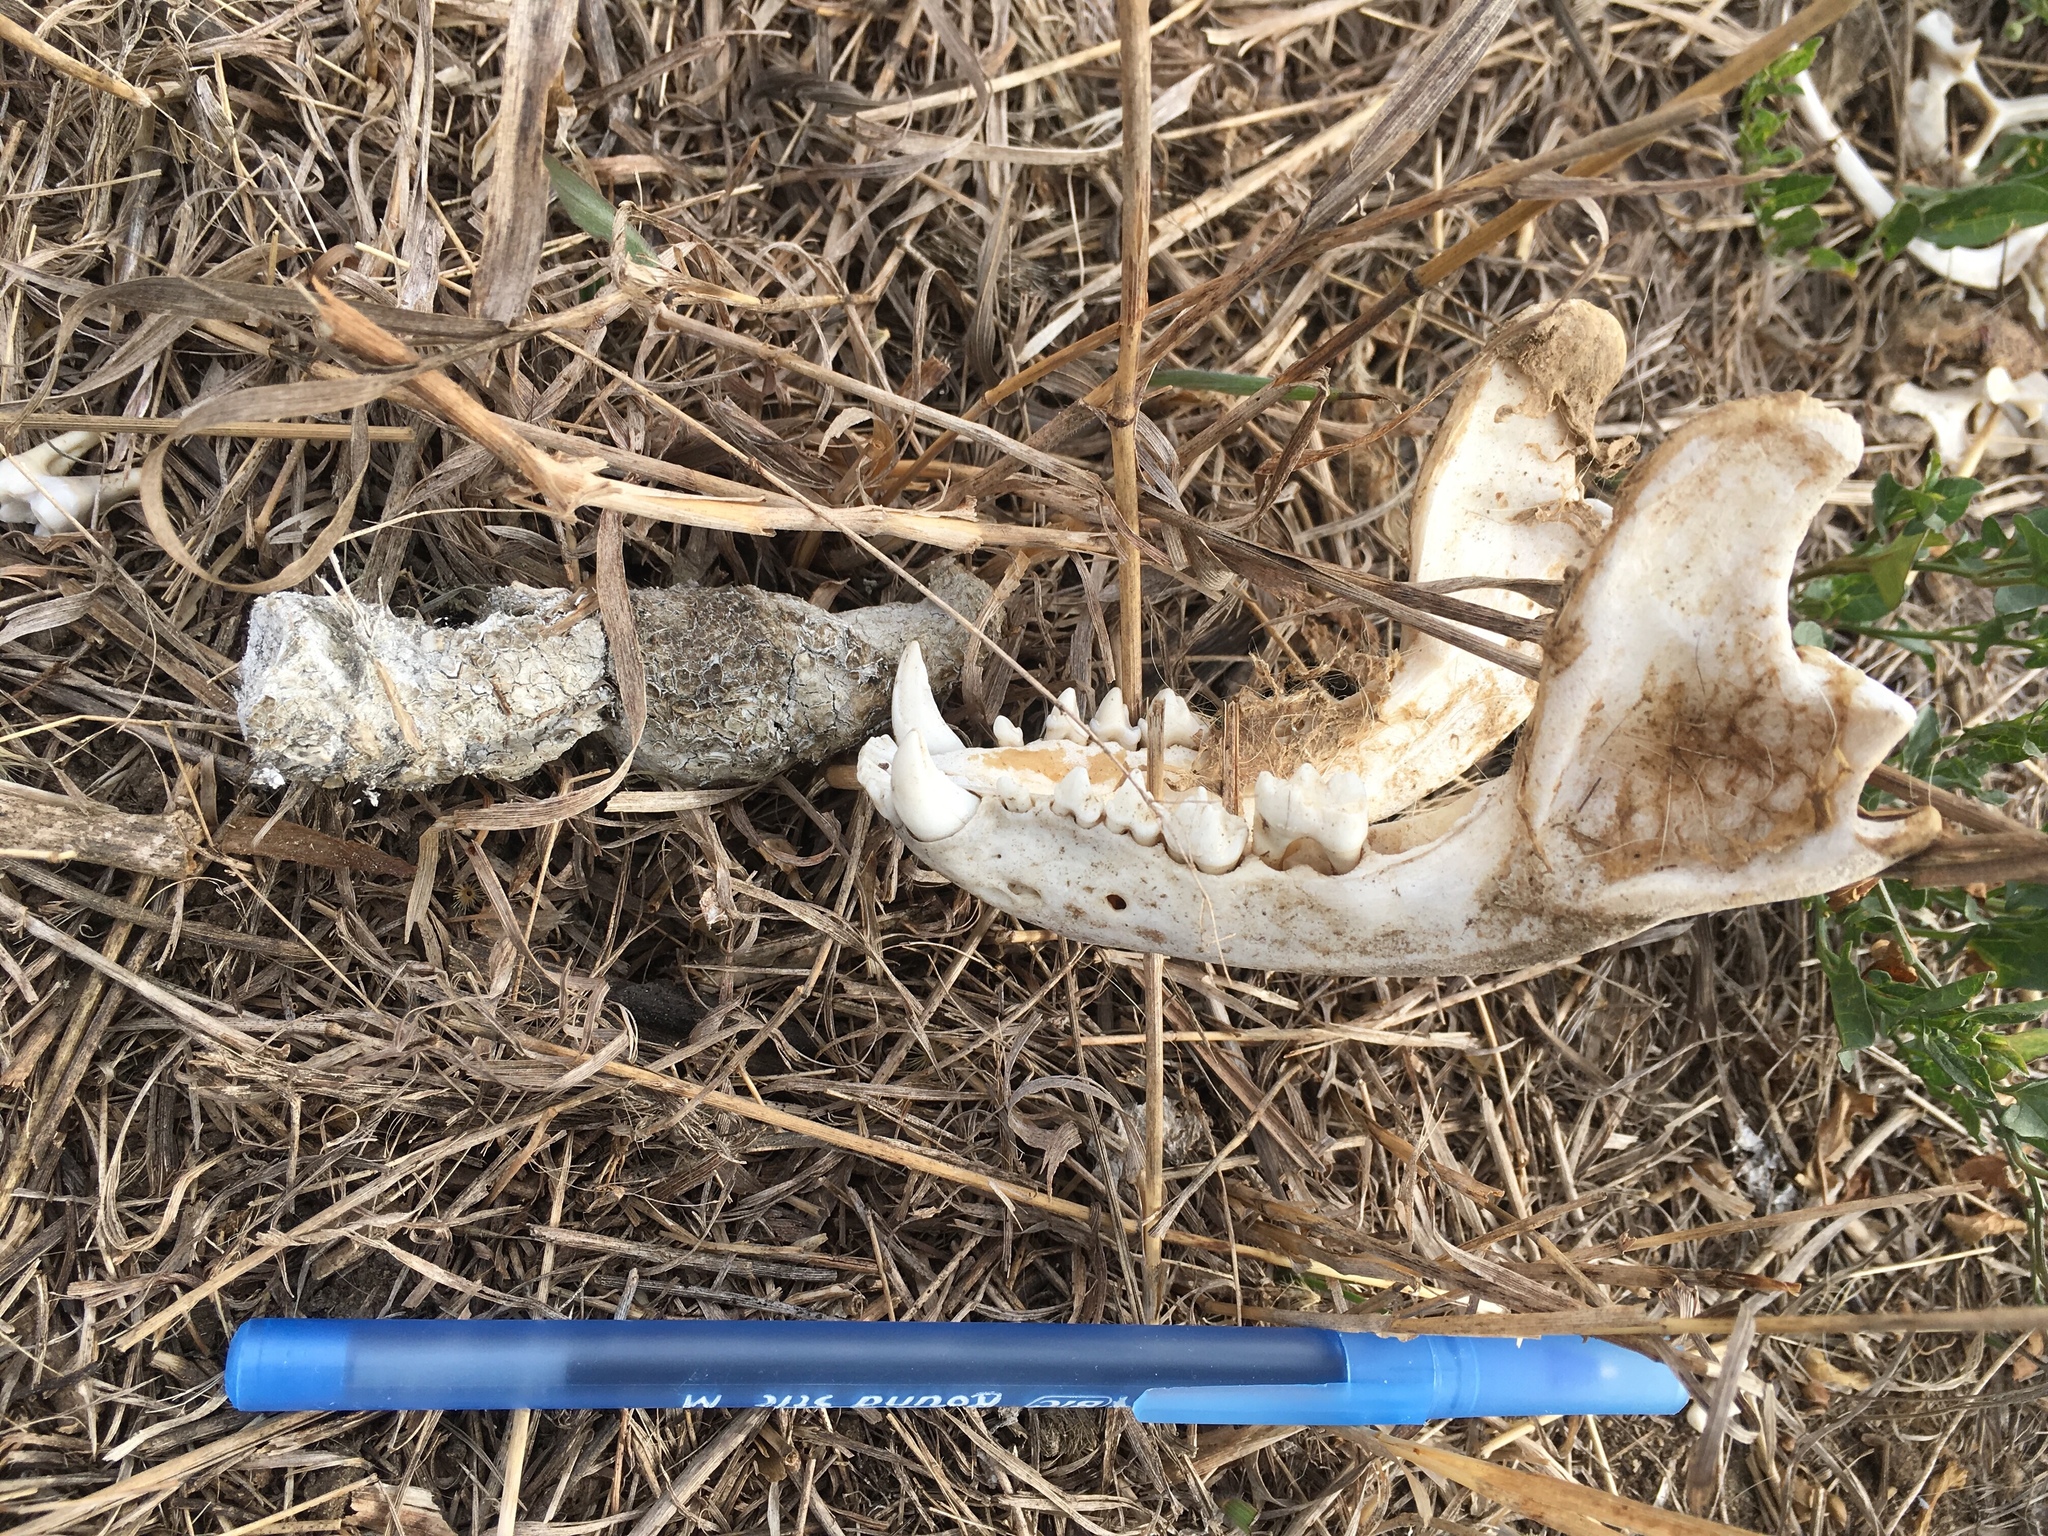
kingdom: Animalia
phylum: Chordata
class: Mammalia
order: Carnivora
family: Procyonidae
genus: Procyon
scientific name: Procyon lotor
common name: Raccoon
